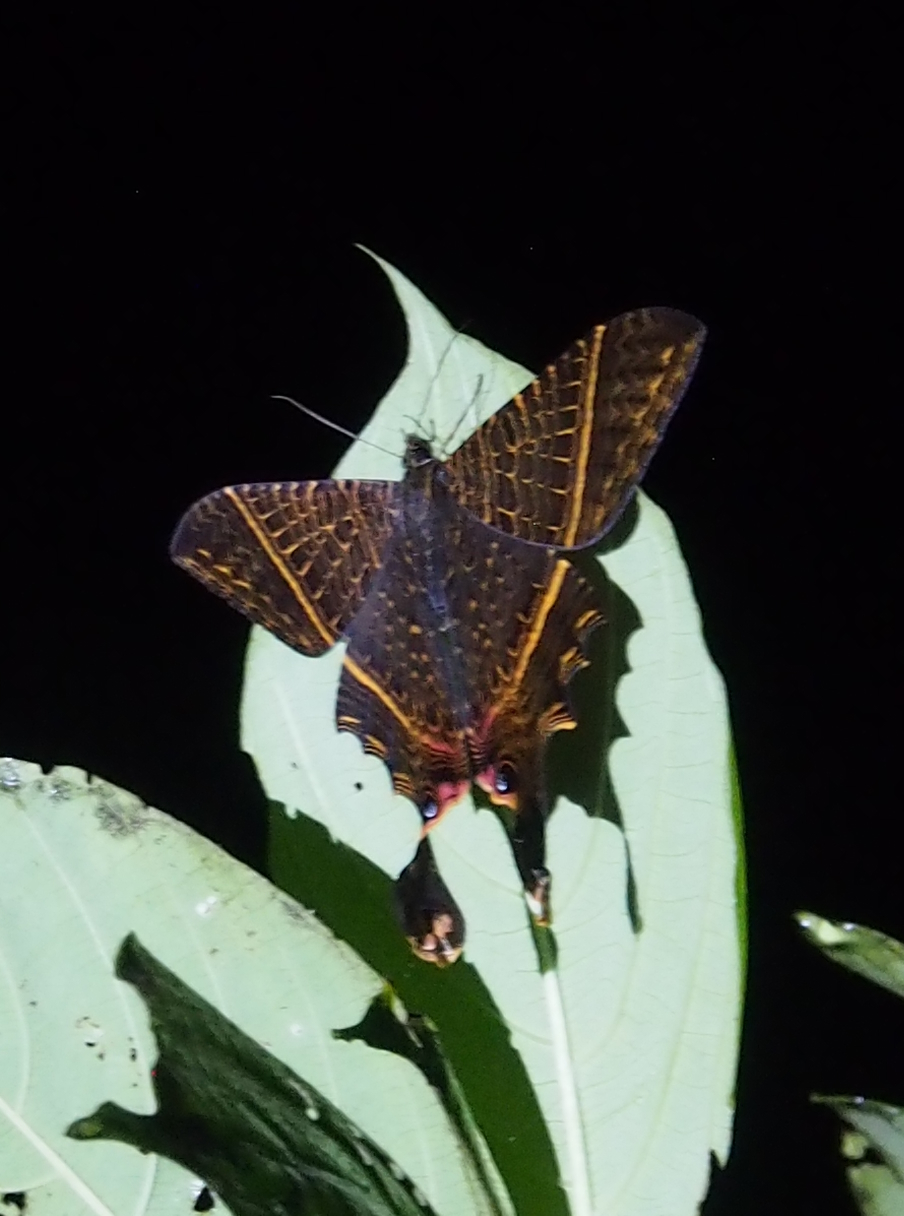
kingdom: Animalia
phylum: Arthropoda
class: Insecta
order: Lepidoptera
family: Sematuridae
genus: Nothus
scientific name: Nothus empedocles
